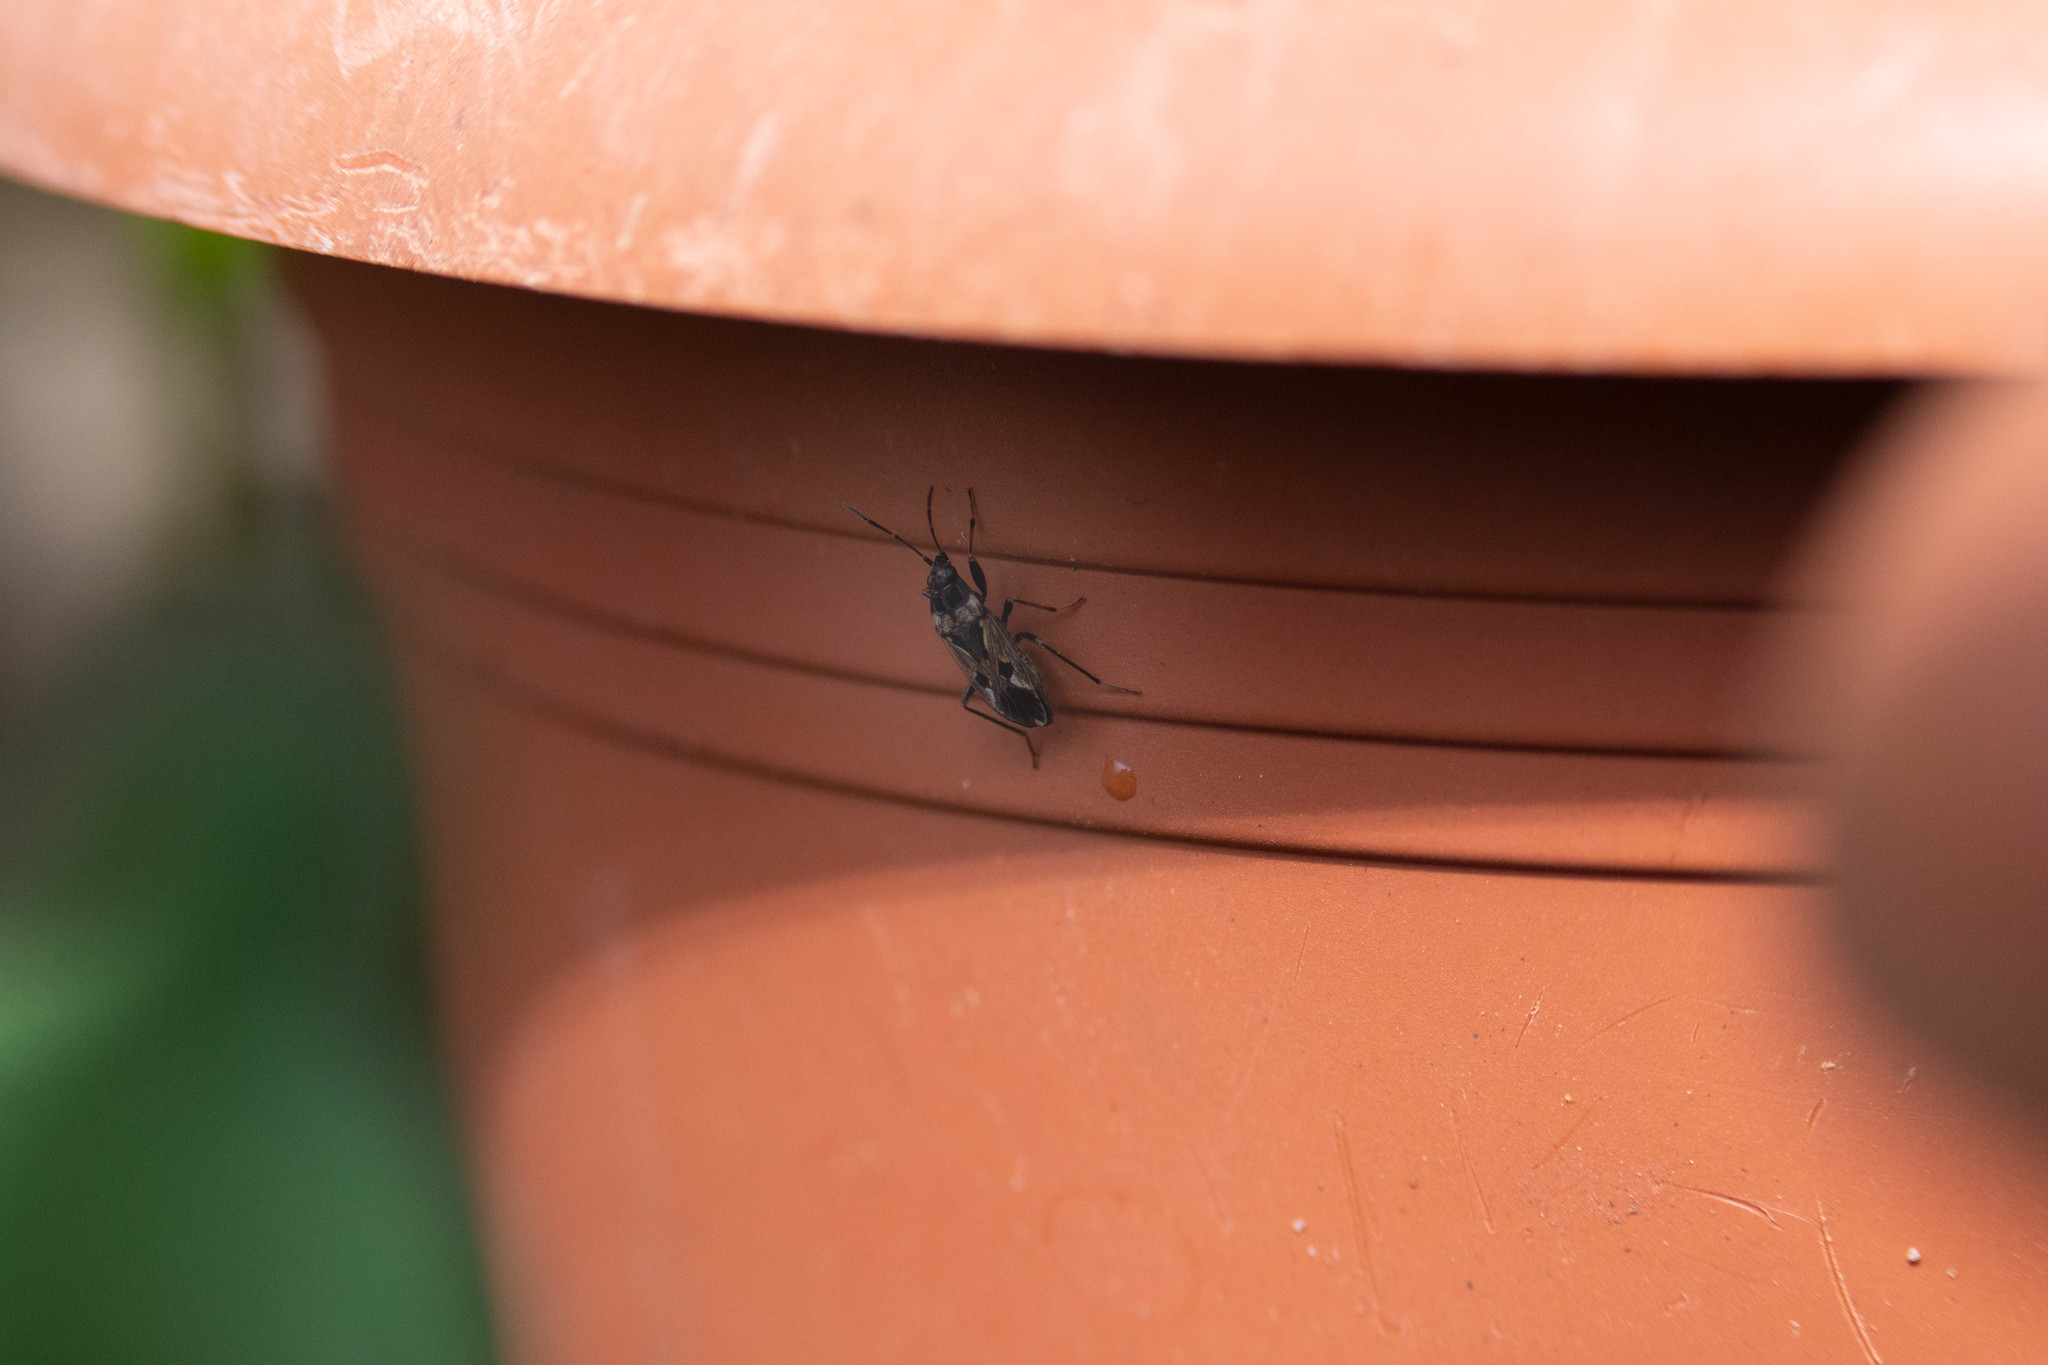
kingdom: Animalia
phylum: Arthropoda
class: Insecta
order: Hemiptera
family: Rhyparochromidae
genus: Rhyparochromus
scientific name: Rhyparochromus vulgaris
